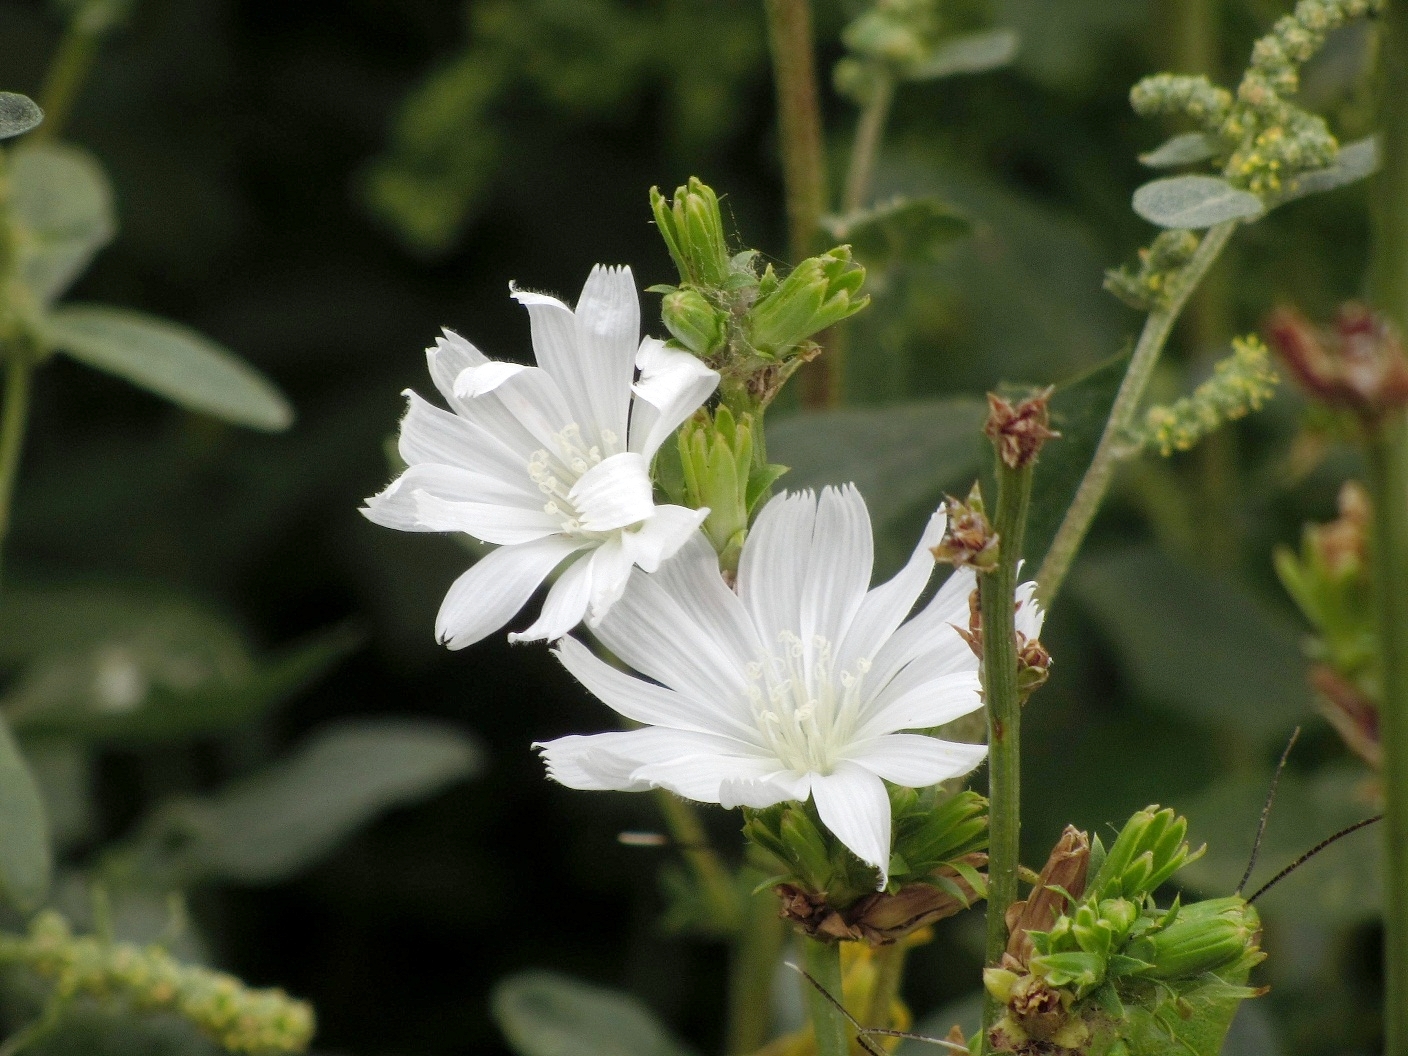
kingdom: Plantae
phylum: Tracheophyta
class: Magnoliopsida
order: Asterales
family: Asteraceae
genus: Cichorium
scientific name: Cichorium intybus
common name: Chicory
